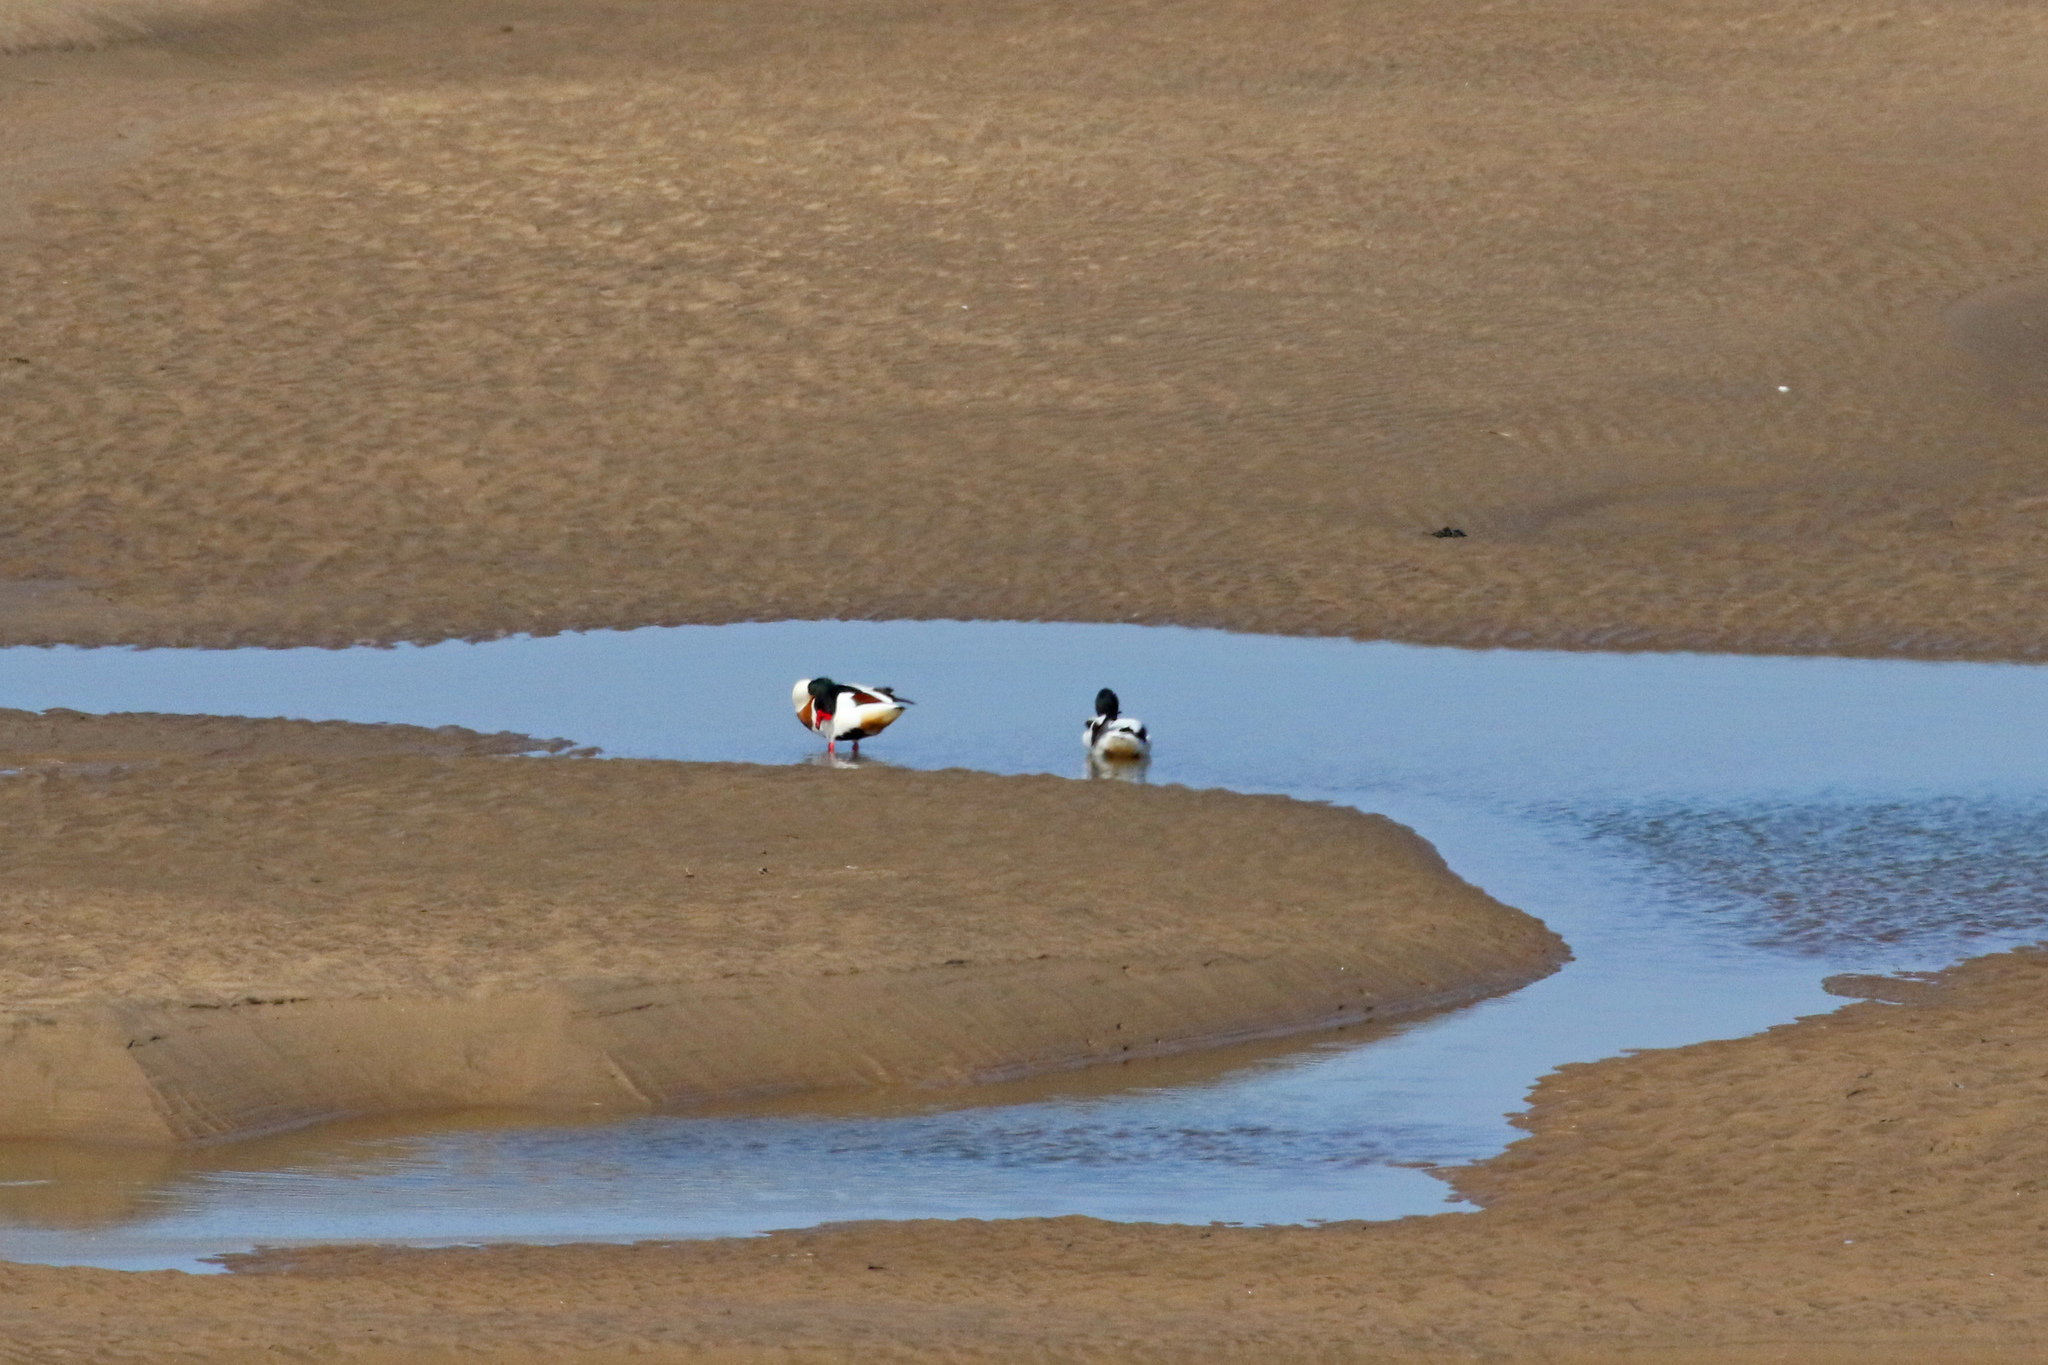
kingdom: Animalia
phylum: Chordata
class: Aves
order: Anseriformes
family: Anatidae
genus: Tadorna
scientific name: Tadorna tadorna
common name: Common shelduck
